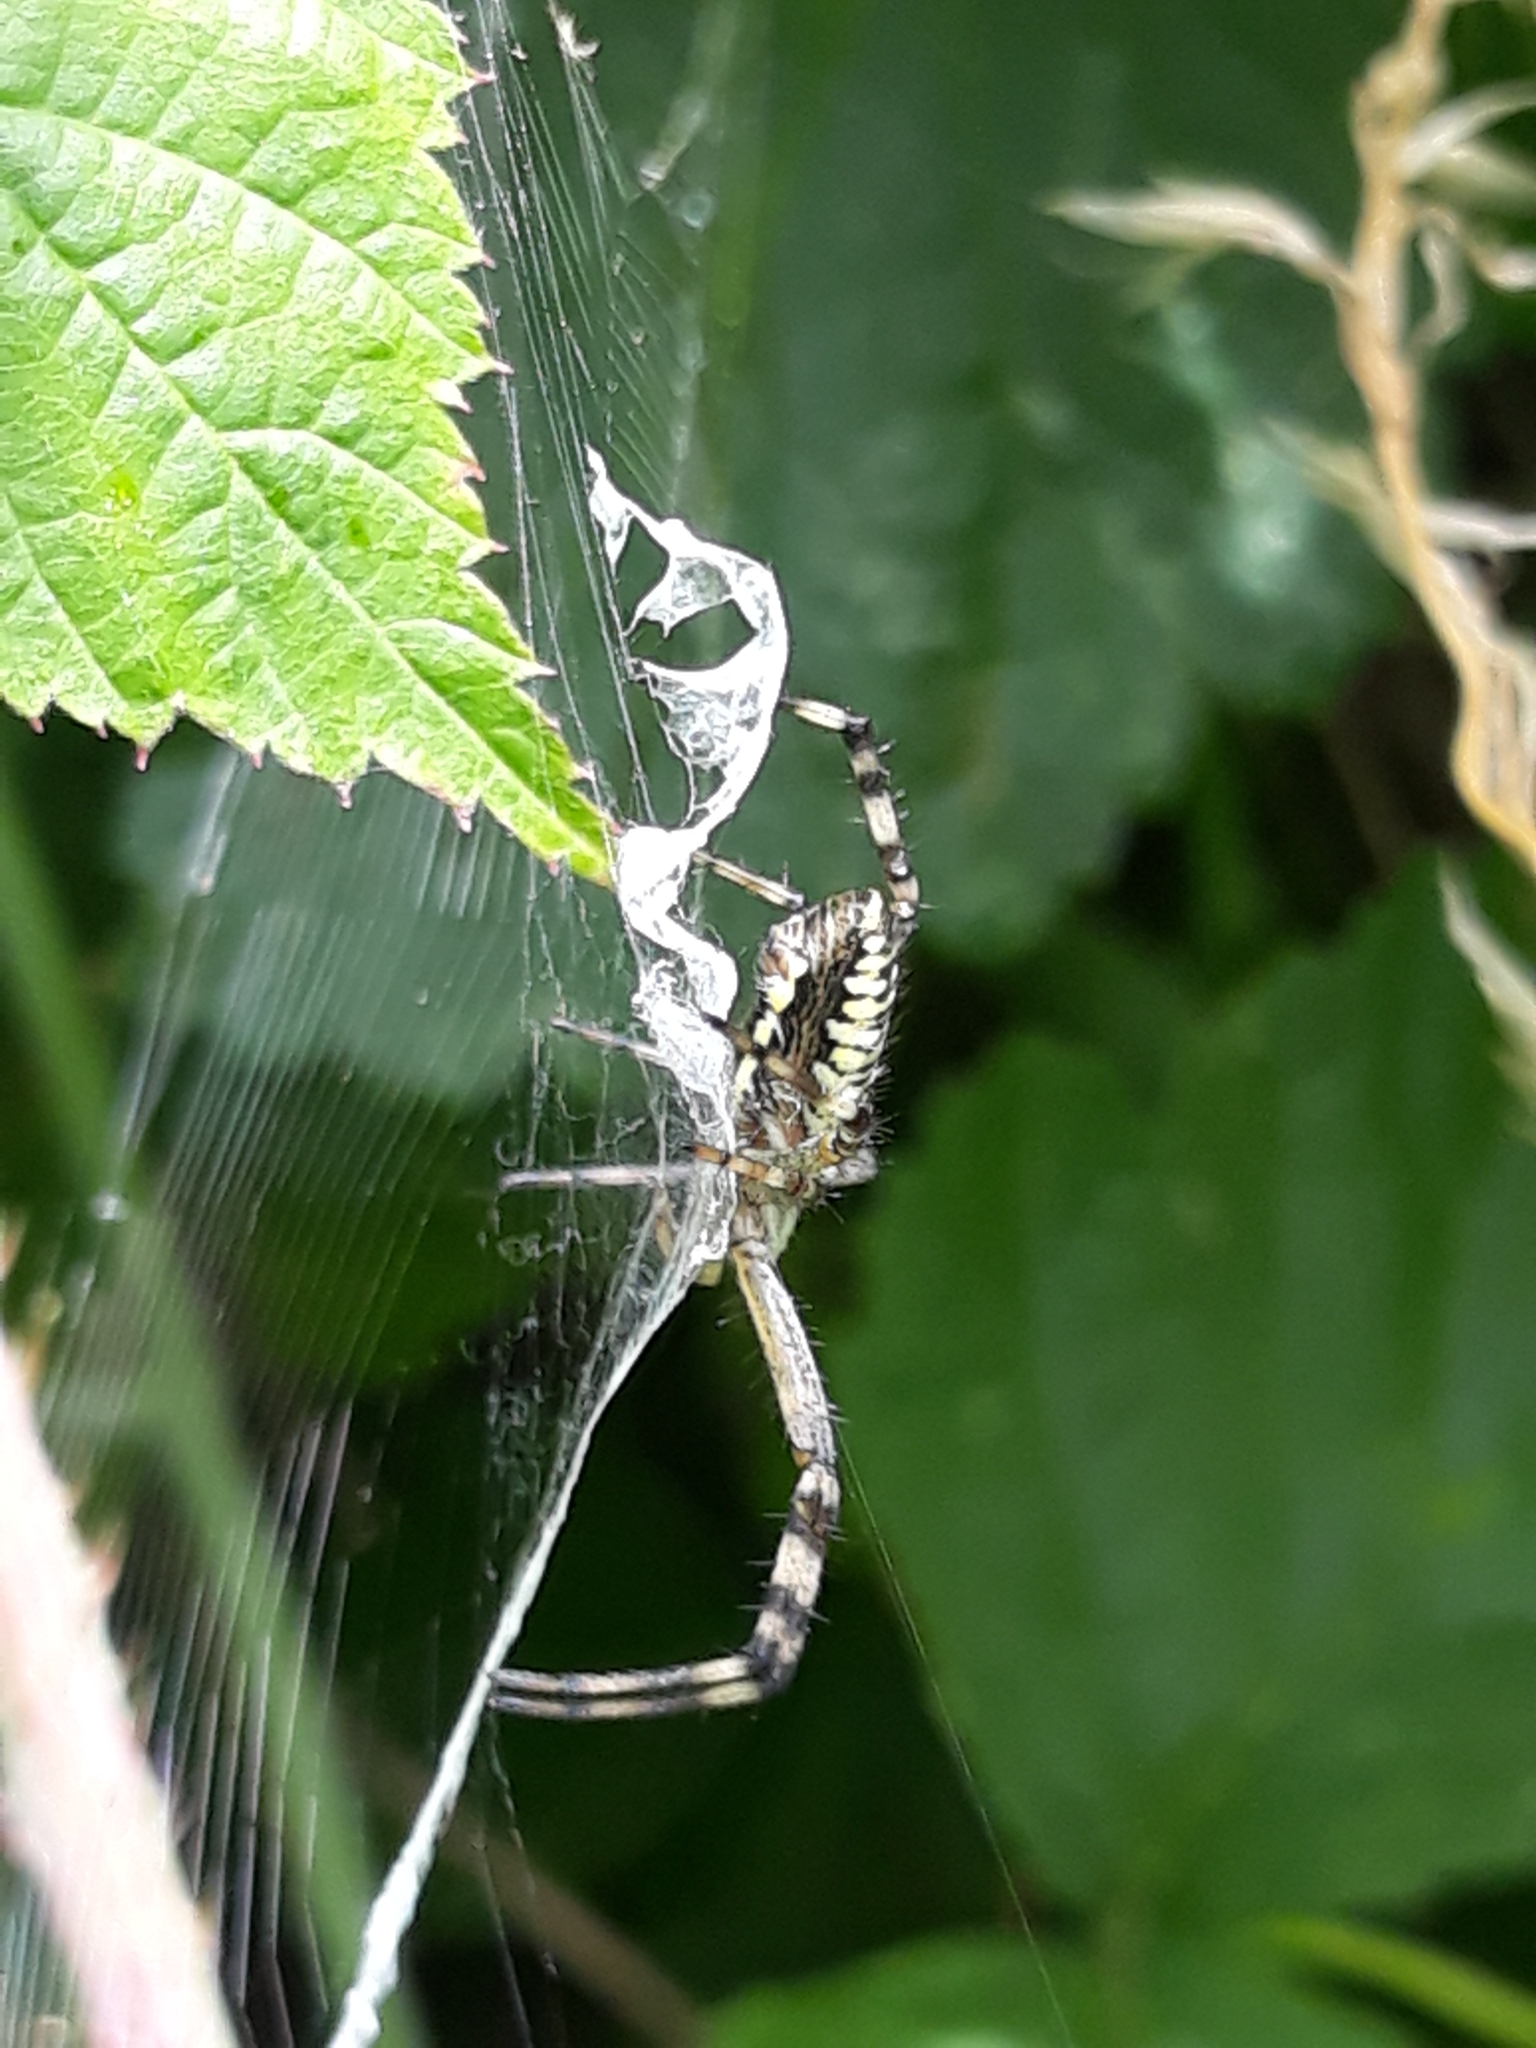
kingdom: Animalia
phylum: Arthropoda
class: Arachnida
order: Araneae
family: Araneidae
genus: Argiope
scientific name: Argiope bruennichi
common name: Wasp spider
